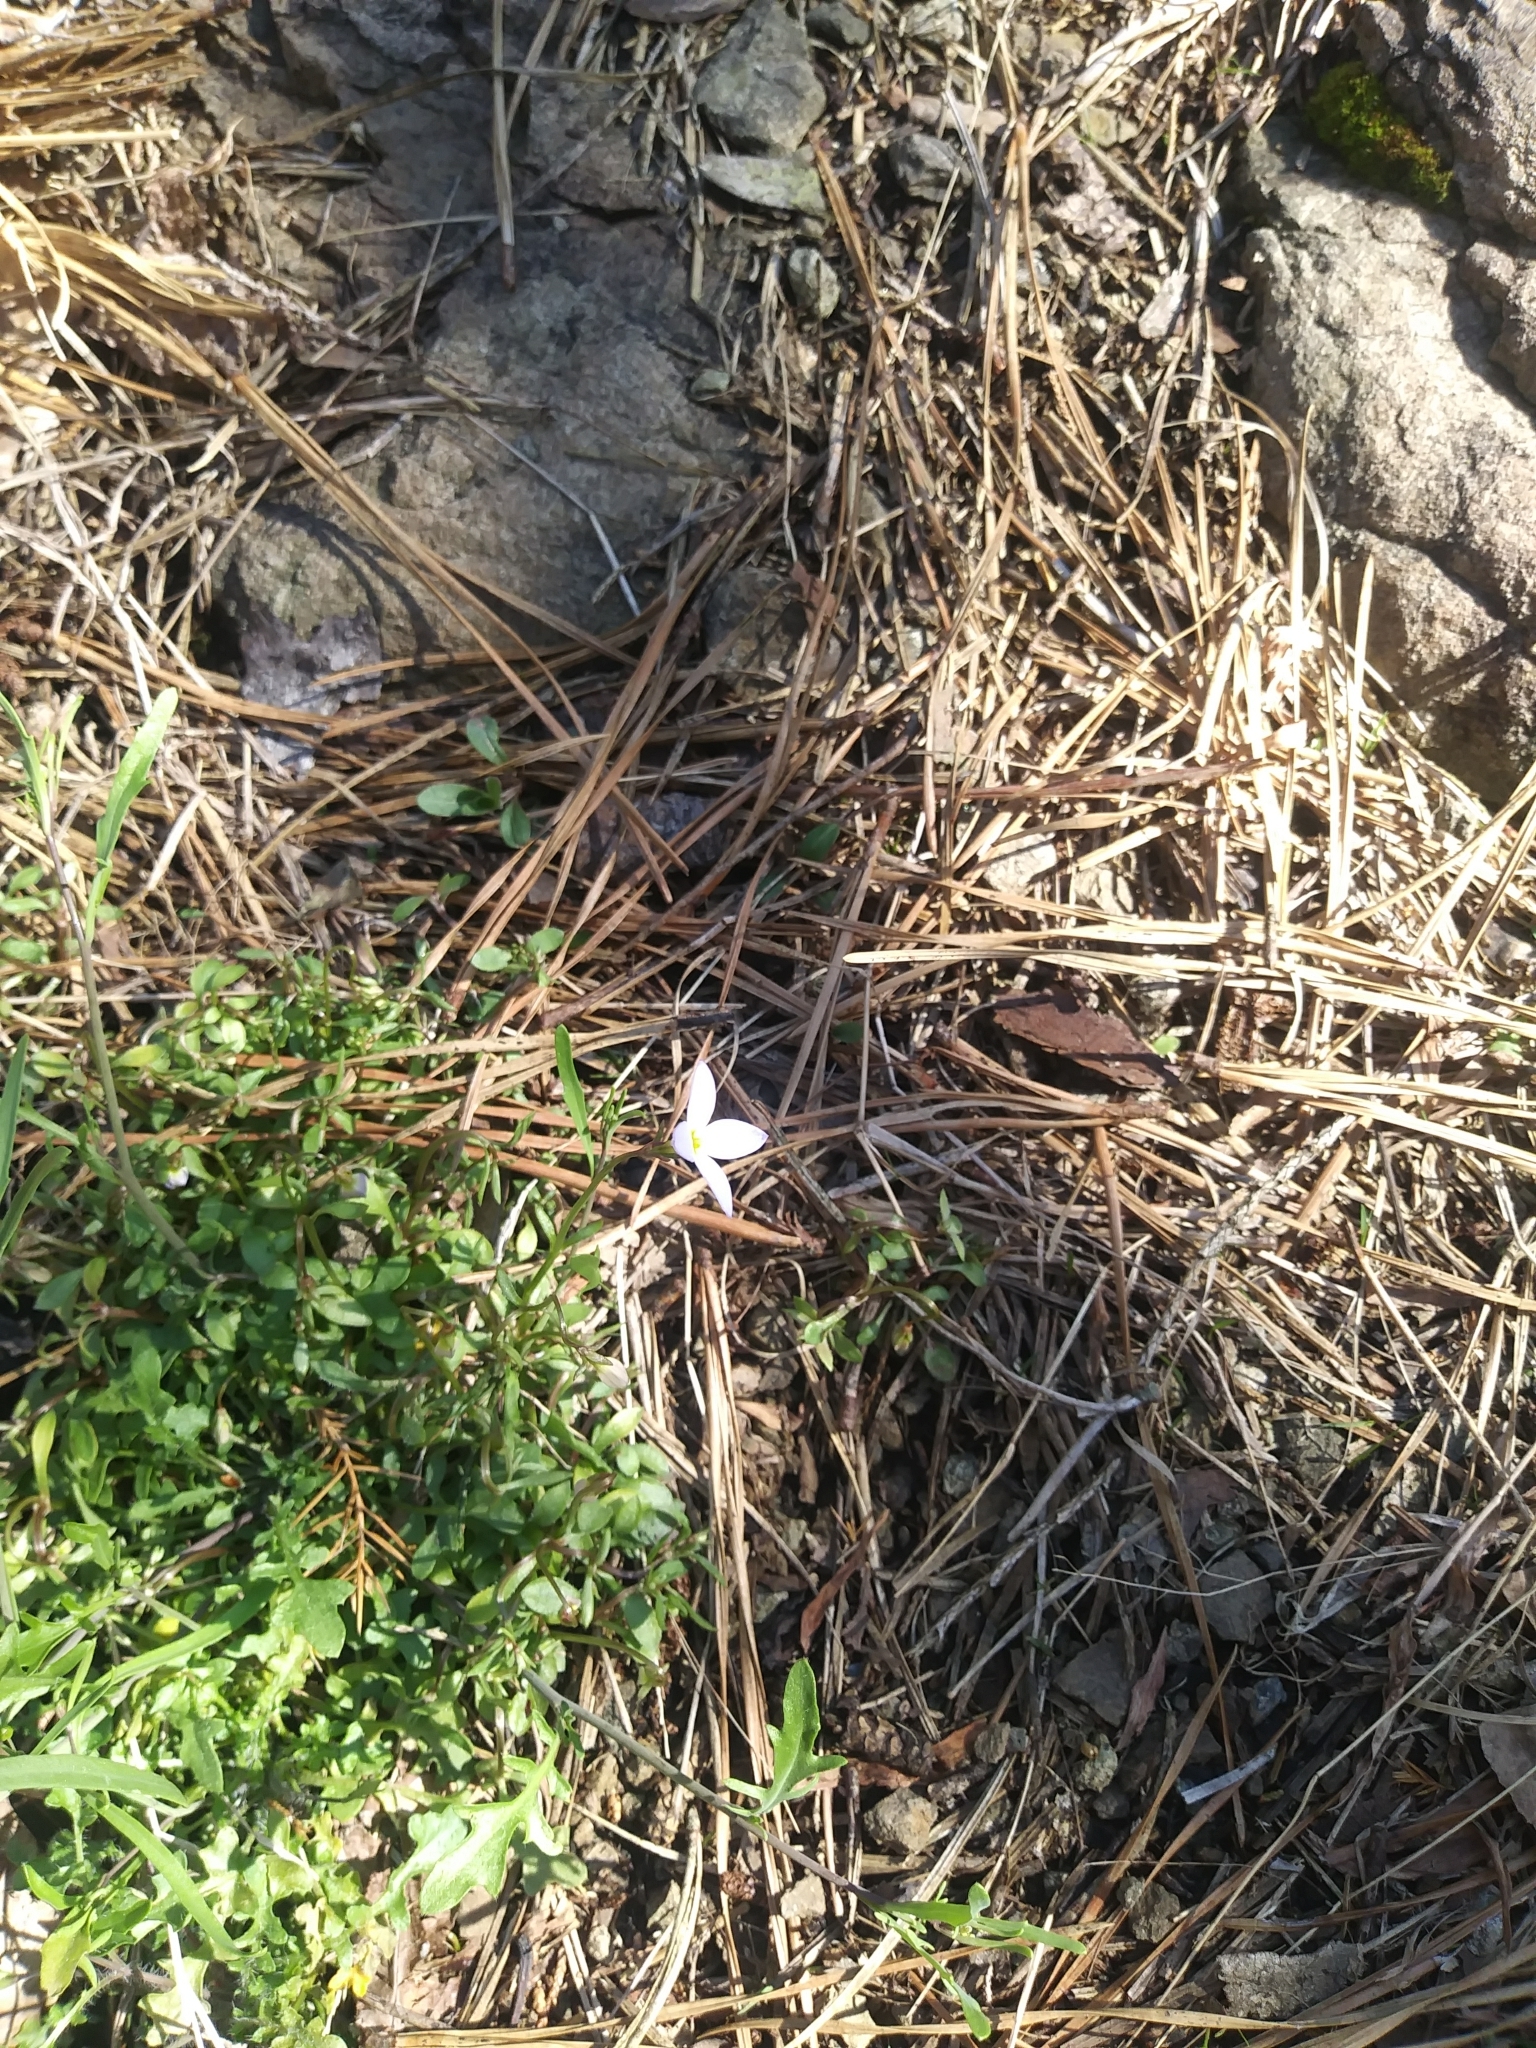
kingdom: Plantae
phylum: Tracheophyta
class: Magnoliopsida
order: Gentianales
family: Rubiaceae
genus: Houstonia
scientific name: Houstonia caerulea
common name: Bluets
